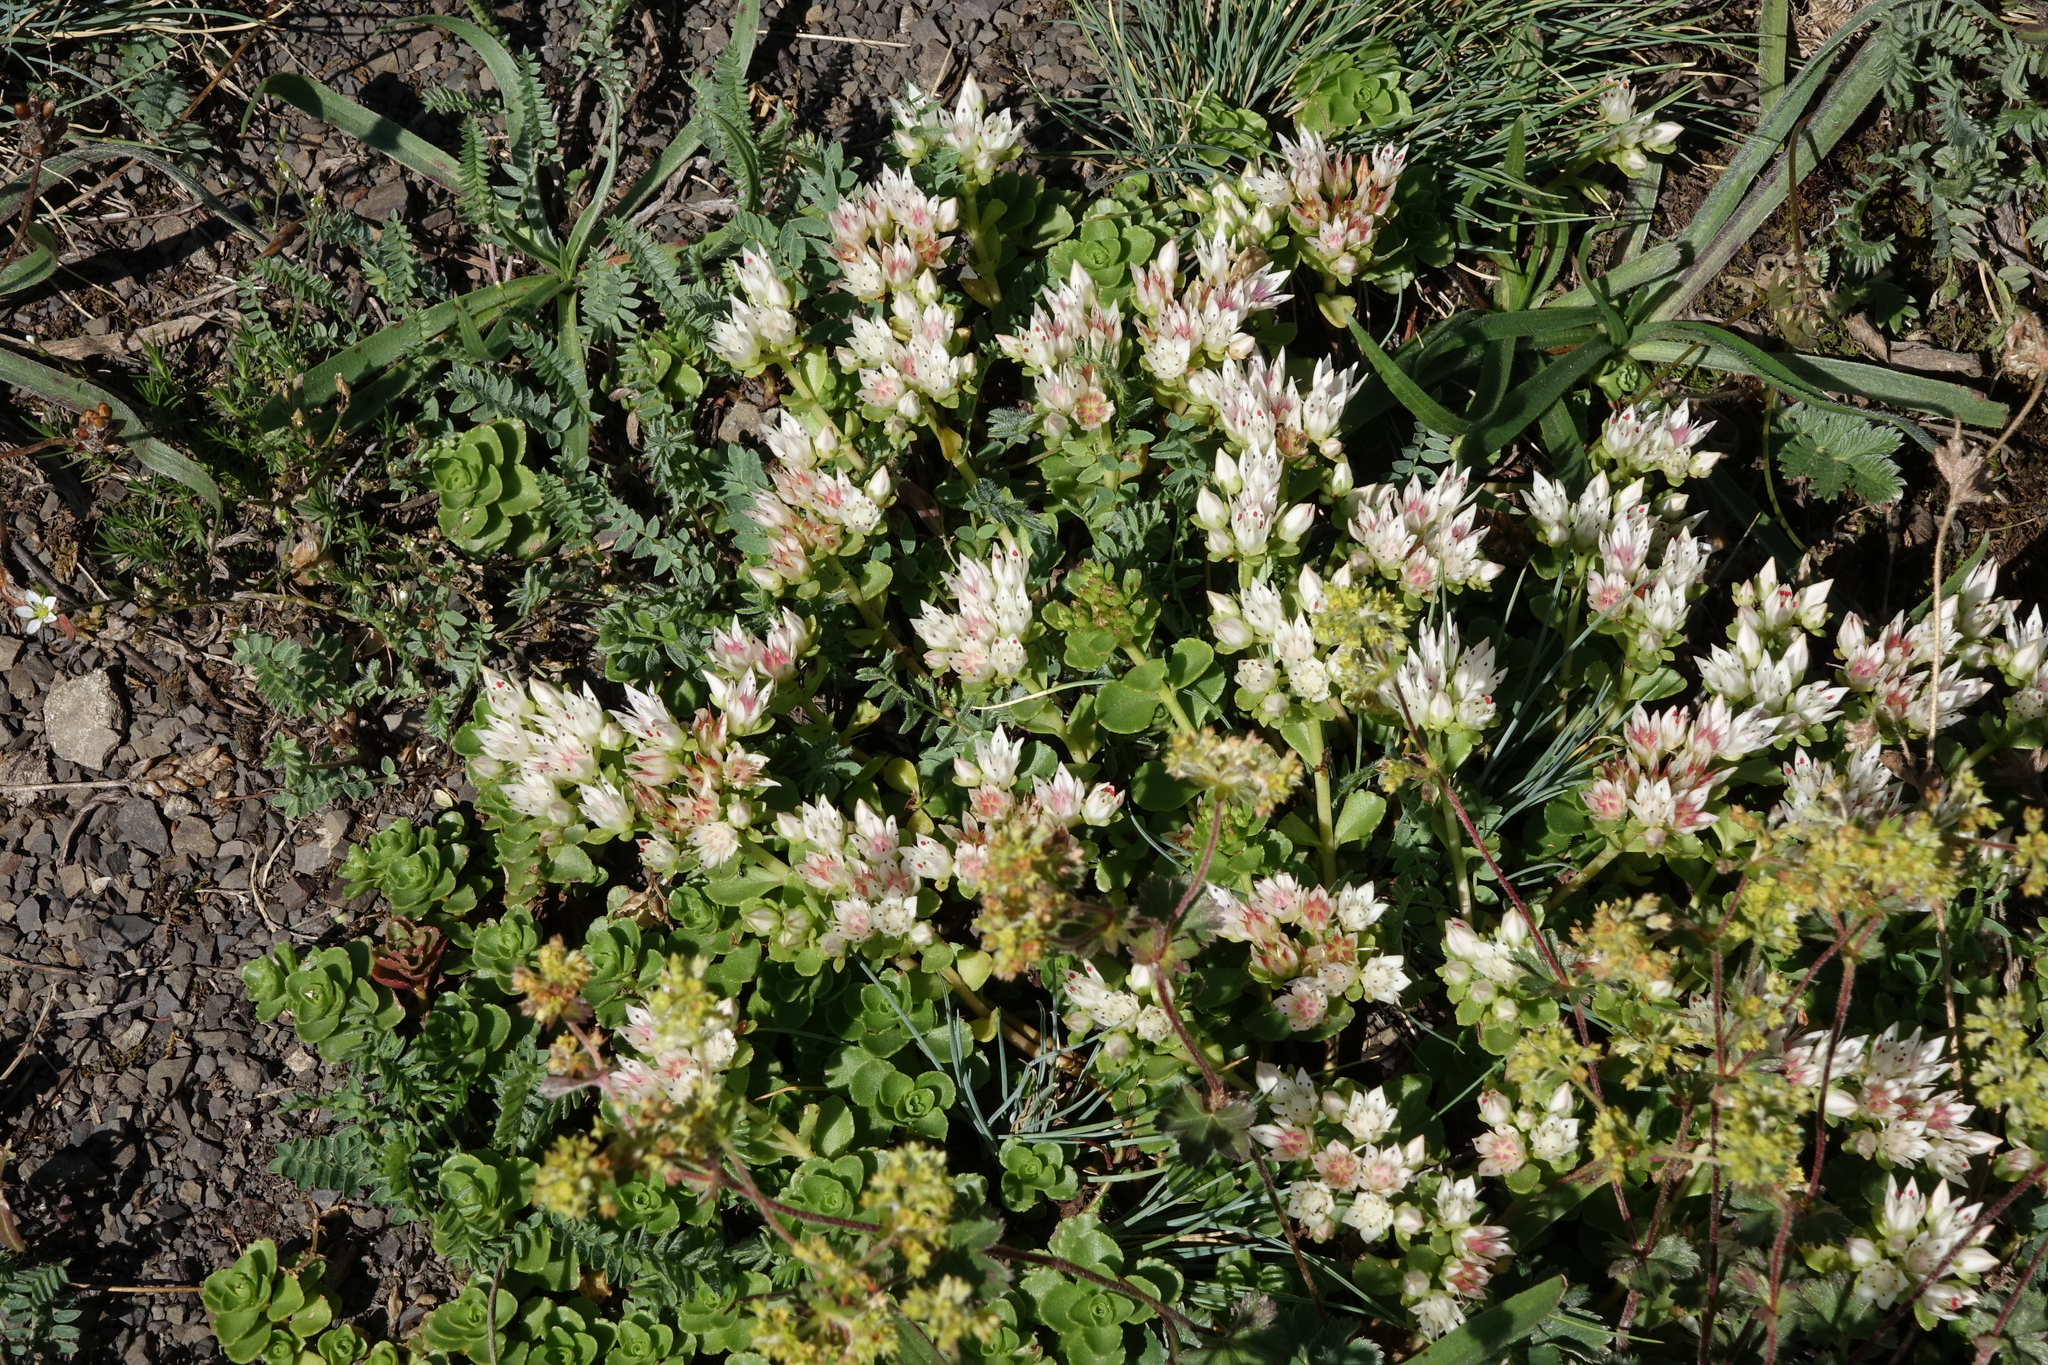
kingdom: Plantae
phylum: Tracheophyta
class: Magnoliopsida
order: Saxifragales
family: Crassulaceae
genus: Phedimus
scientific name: Phedimus spurius
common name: Caucasian stonecrop
